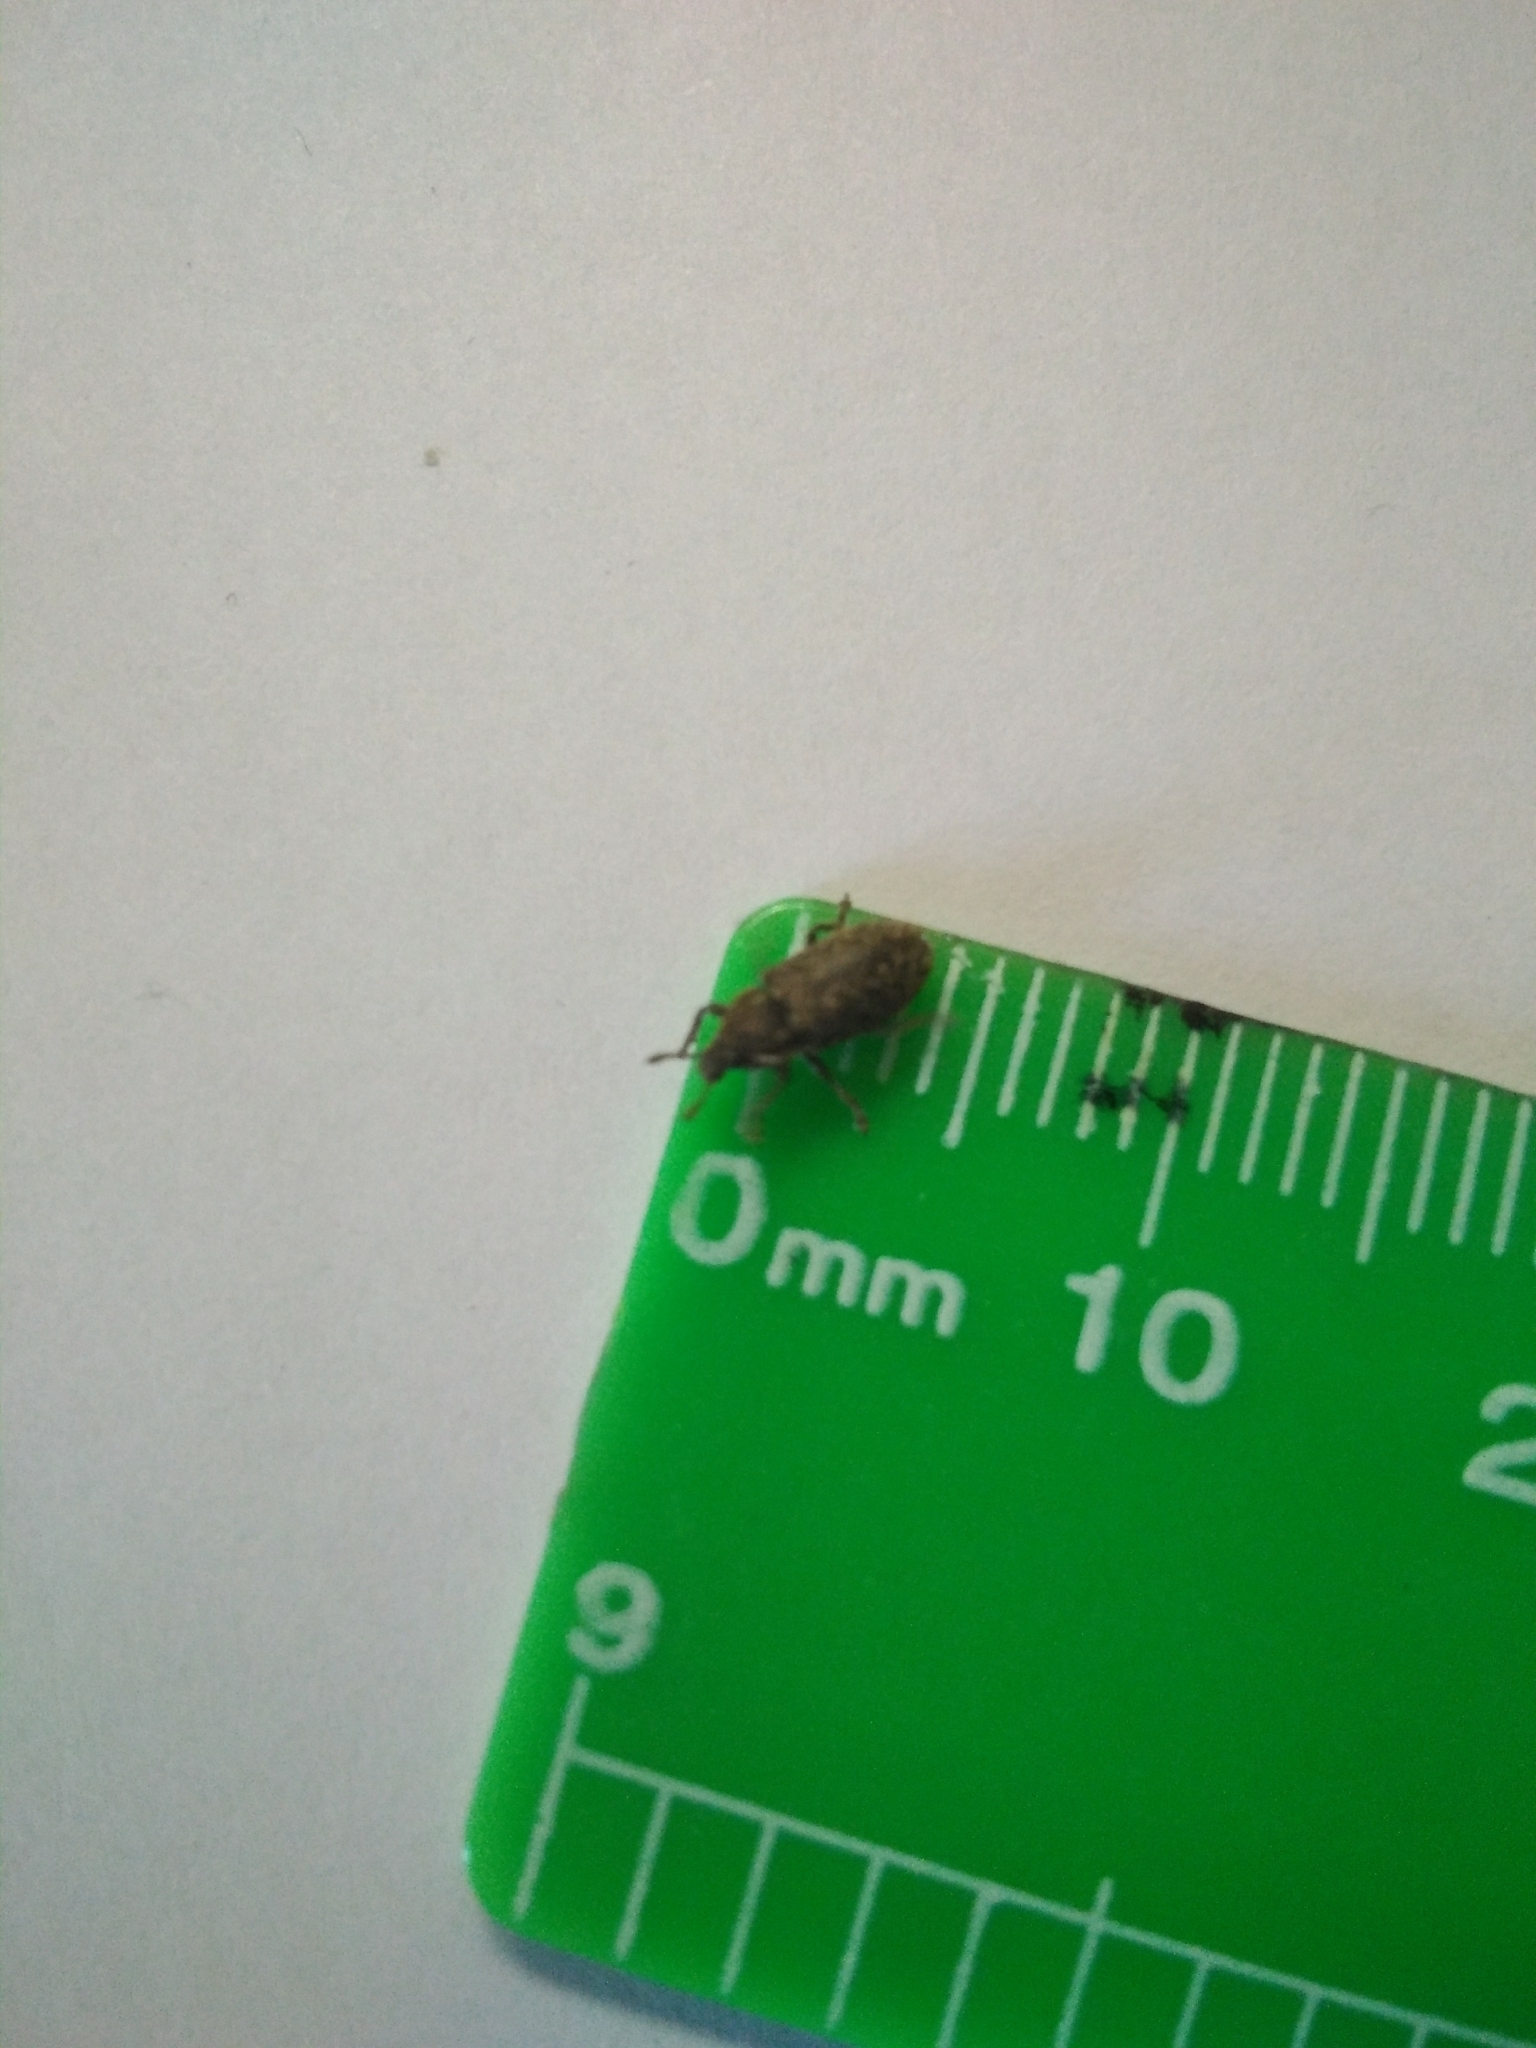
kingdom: Animalia
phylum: Arthropoda
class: Insecta
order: Coleoptera
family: Curculionidae
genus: Rhinocyllus
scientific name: Rhinocyllus conicus
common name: Weevil
